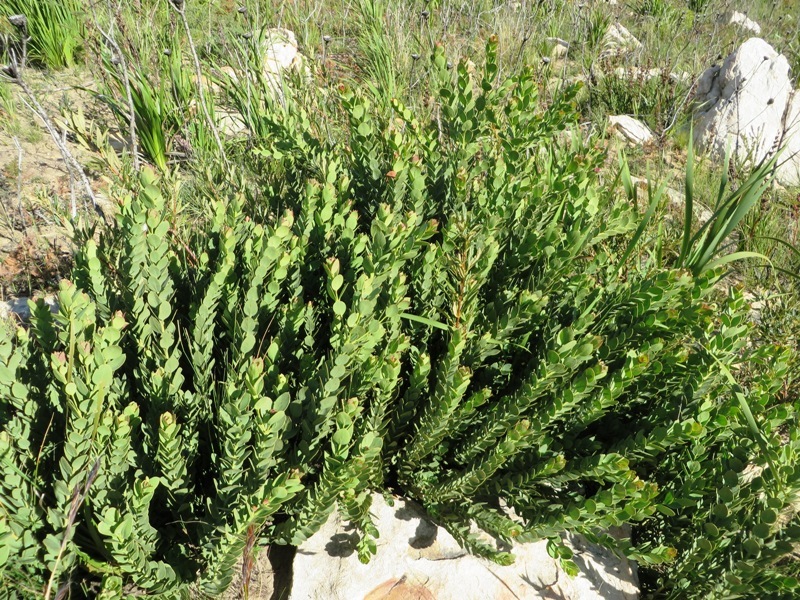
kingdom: Plantae
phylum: Tracheophyta
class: Magnoliopsida
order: Santalales
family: Santalaceae
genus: Osyris
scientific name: Osyris speciosa
